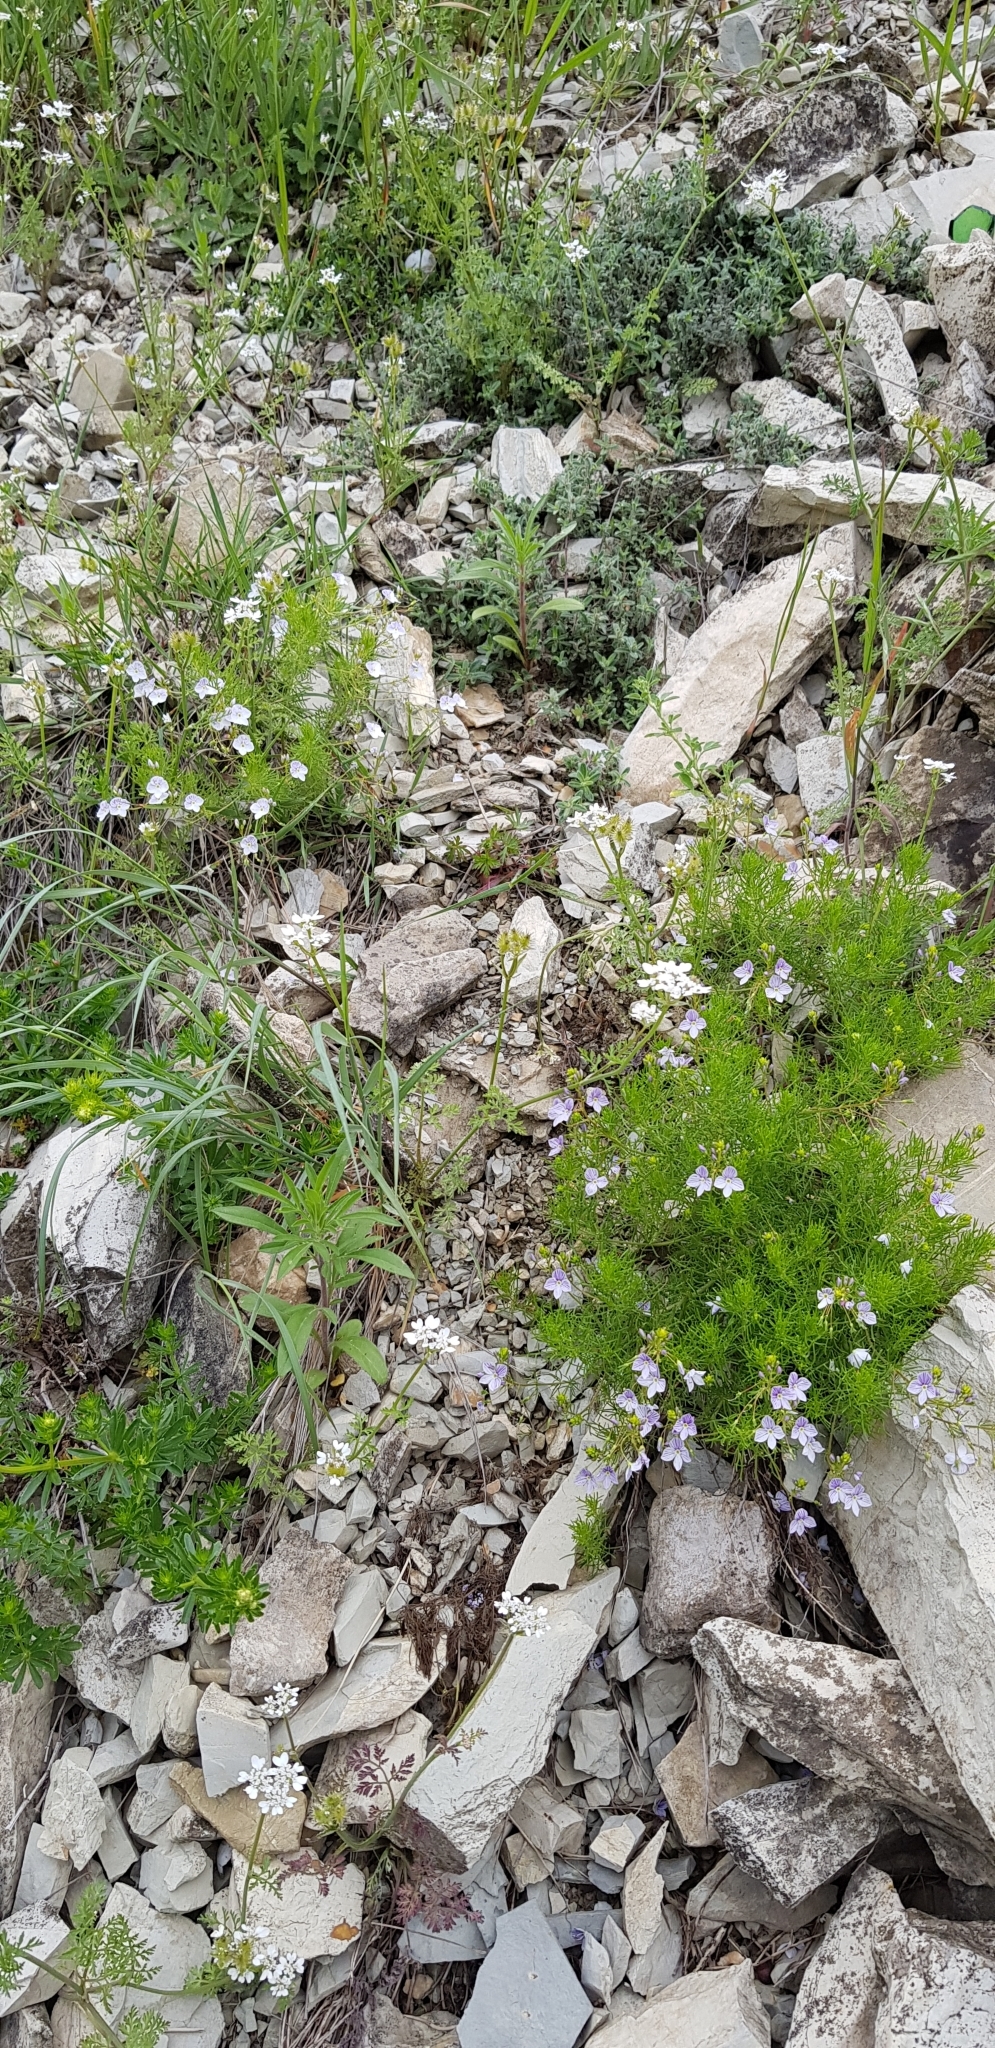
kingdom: Plantae
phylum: Tracheophyta
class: Magnoliopsida
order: Lamiales
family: Plantaginaceae
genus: Veronica
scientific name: Veronica filifolia
